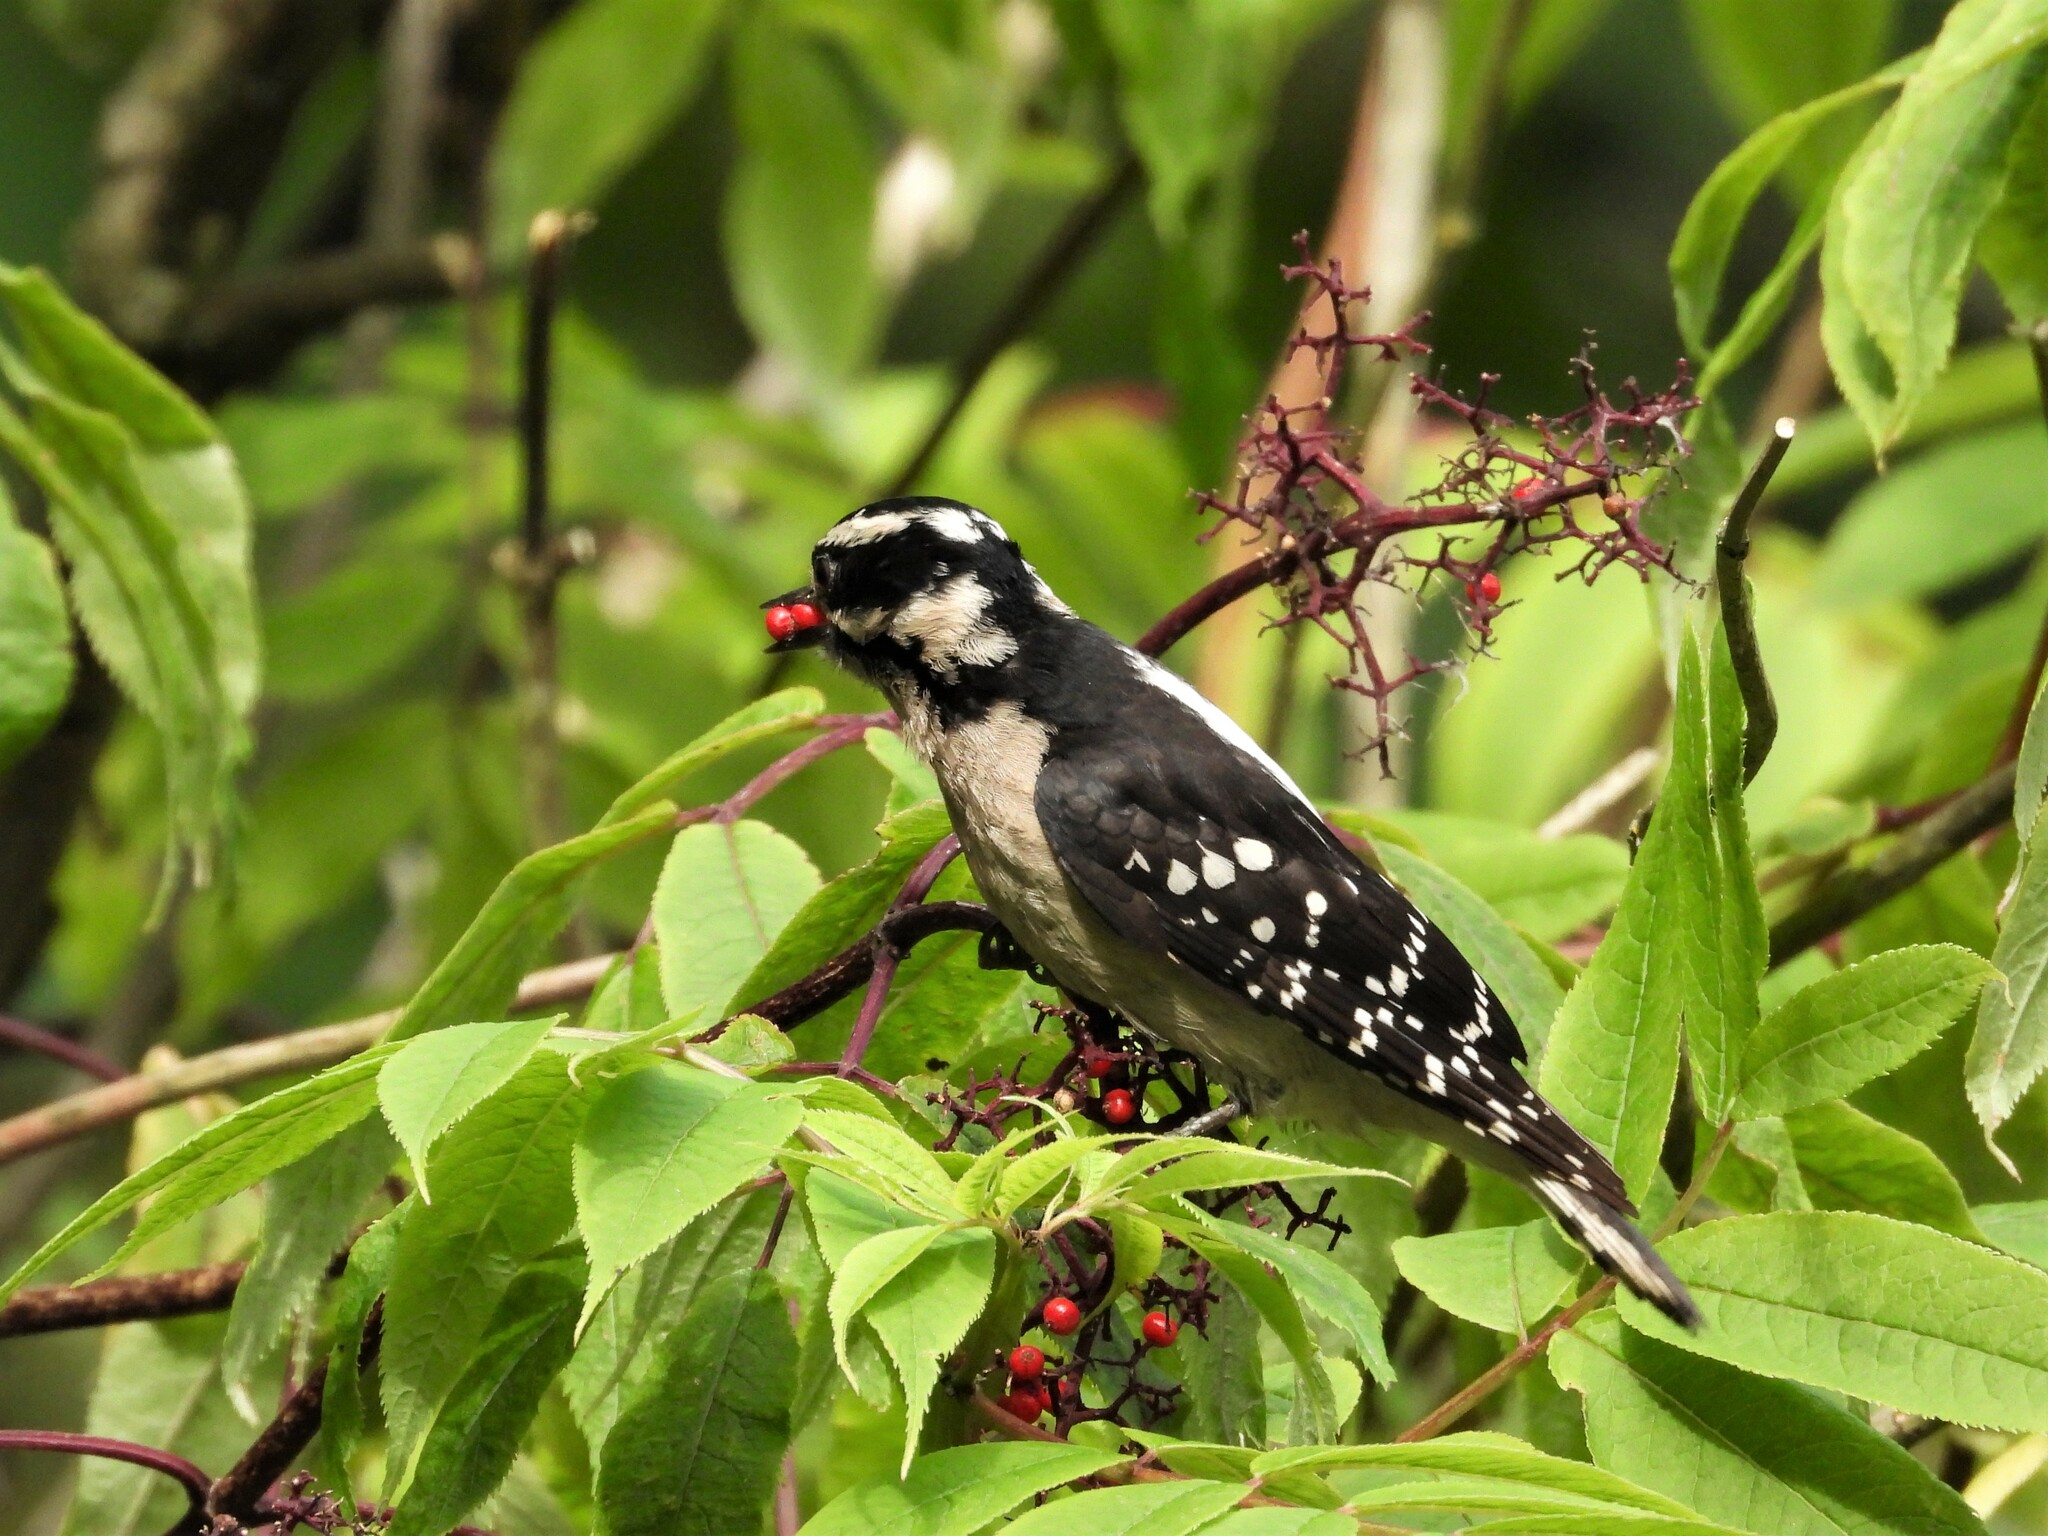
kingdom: Animalia
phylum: Chordata
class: Aves
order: Piciformes
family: Picidae
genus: Dryobates
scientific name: Dryobates pubescens
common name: Downy woodpecker
